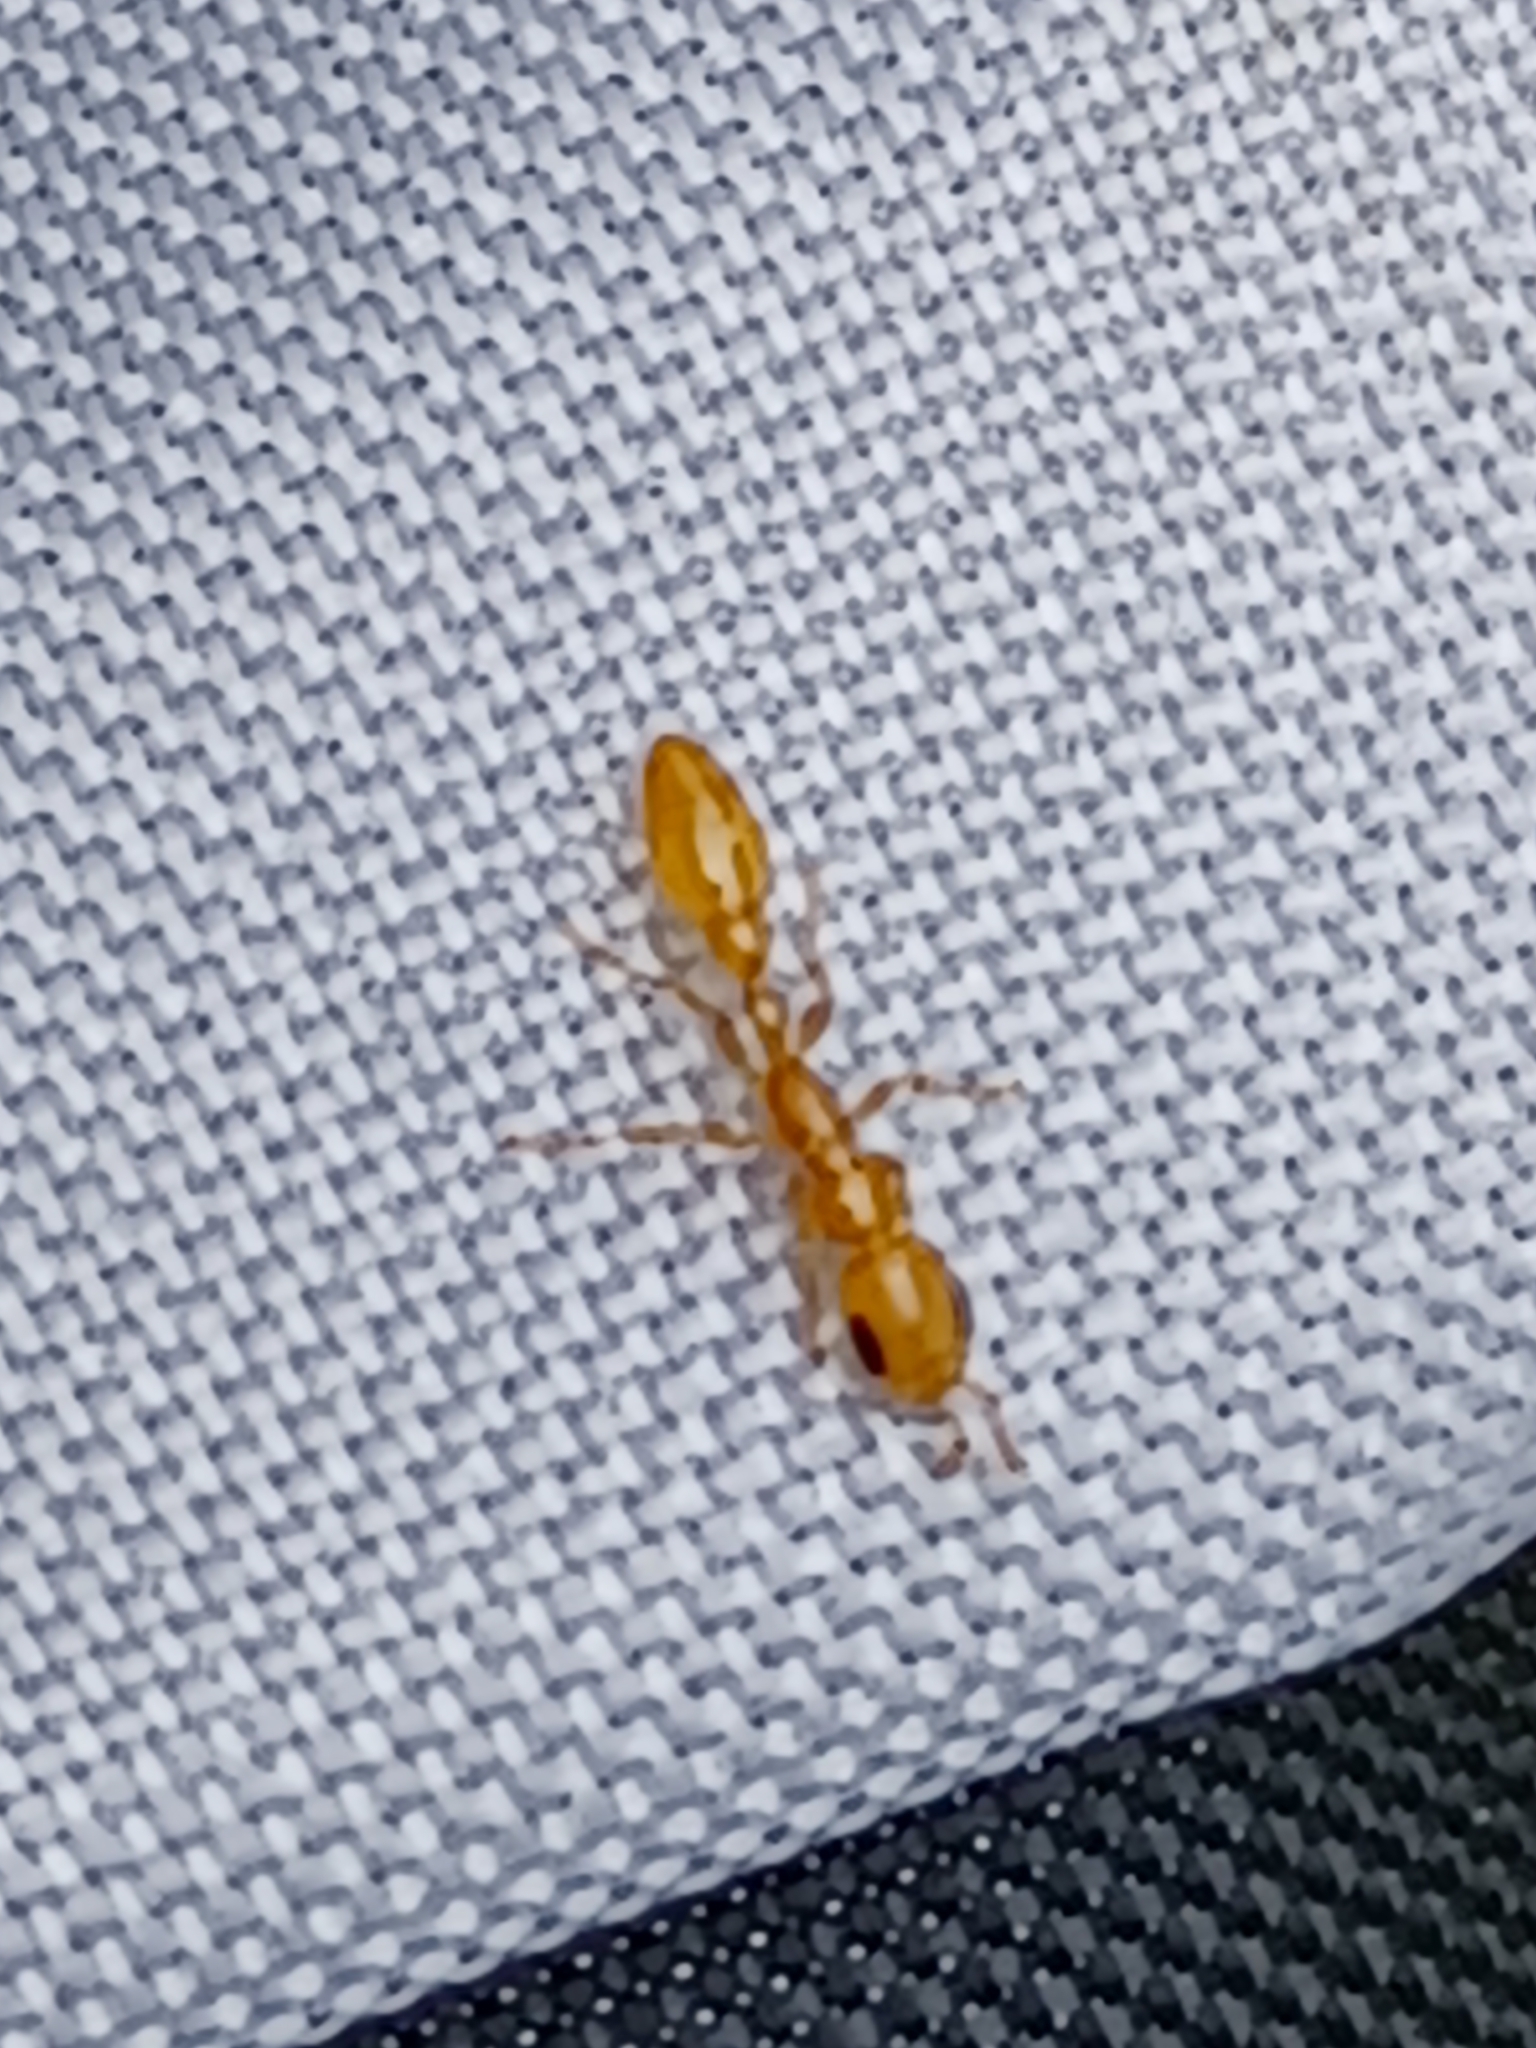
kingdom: Animalia
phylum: Arthropoda
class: Insecta
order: Hymenoptera
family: Formicidae
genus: Pseudomyrmex
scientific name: Pseudomyrmex pallidus
